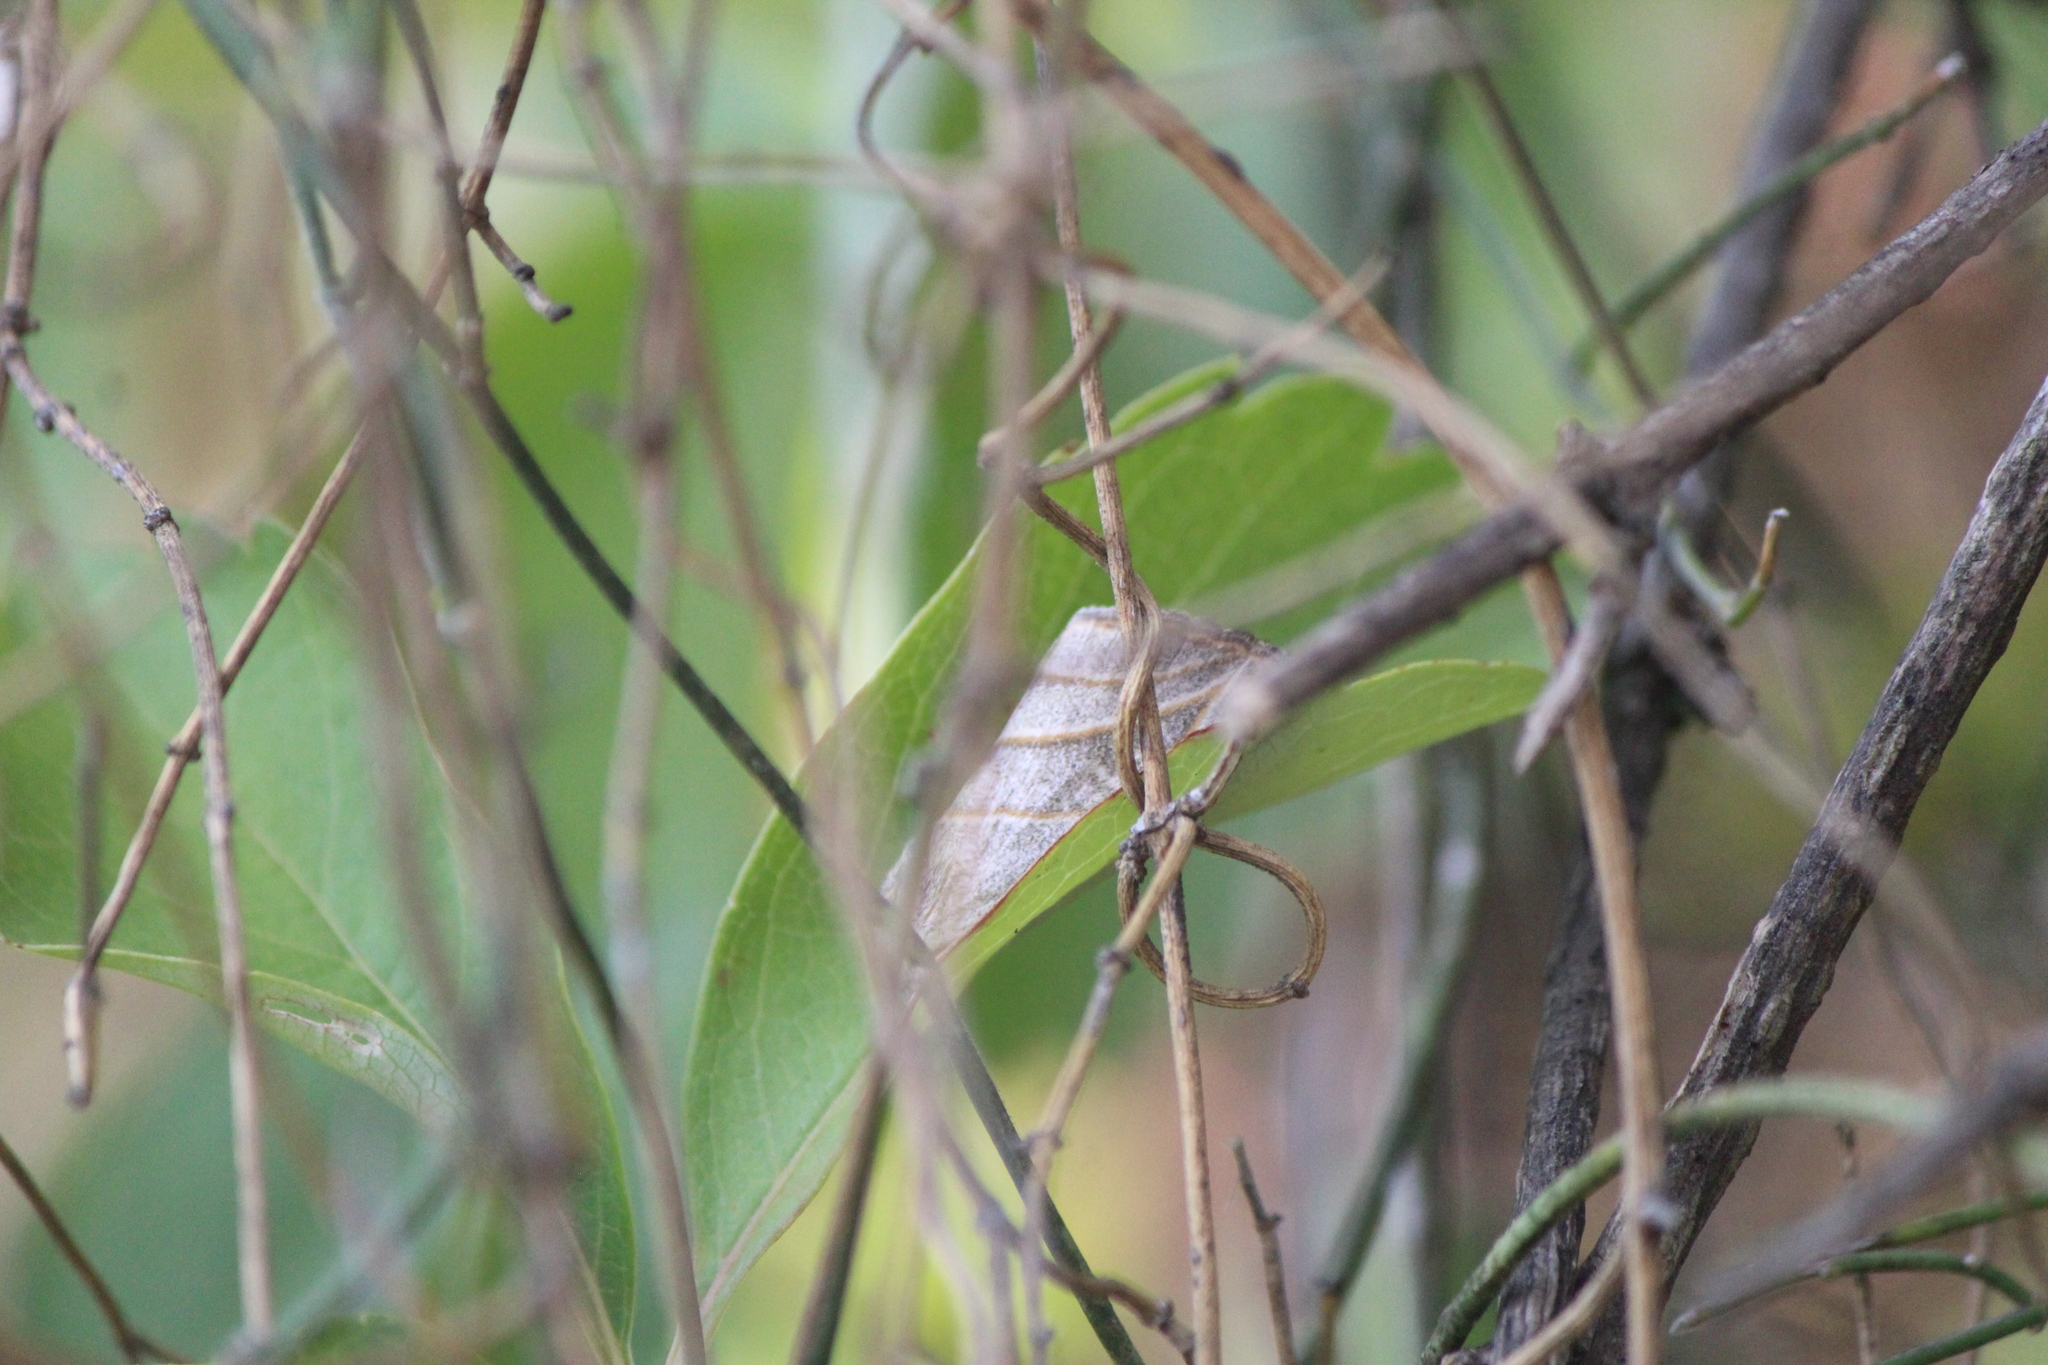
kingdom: Animalia
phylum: Arthropoda
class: Insecta
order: Lepidoptera
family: Noctuidae
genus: Bagisara
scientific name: Bagisara laverna
